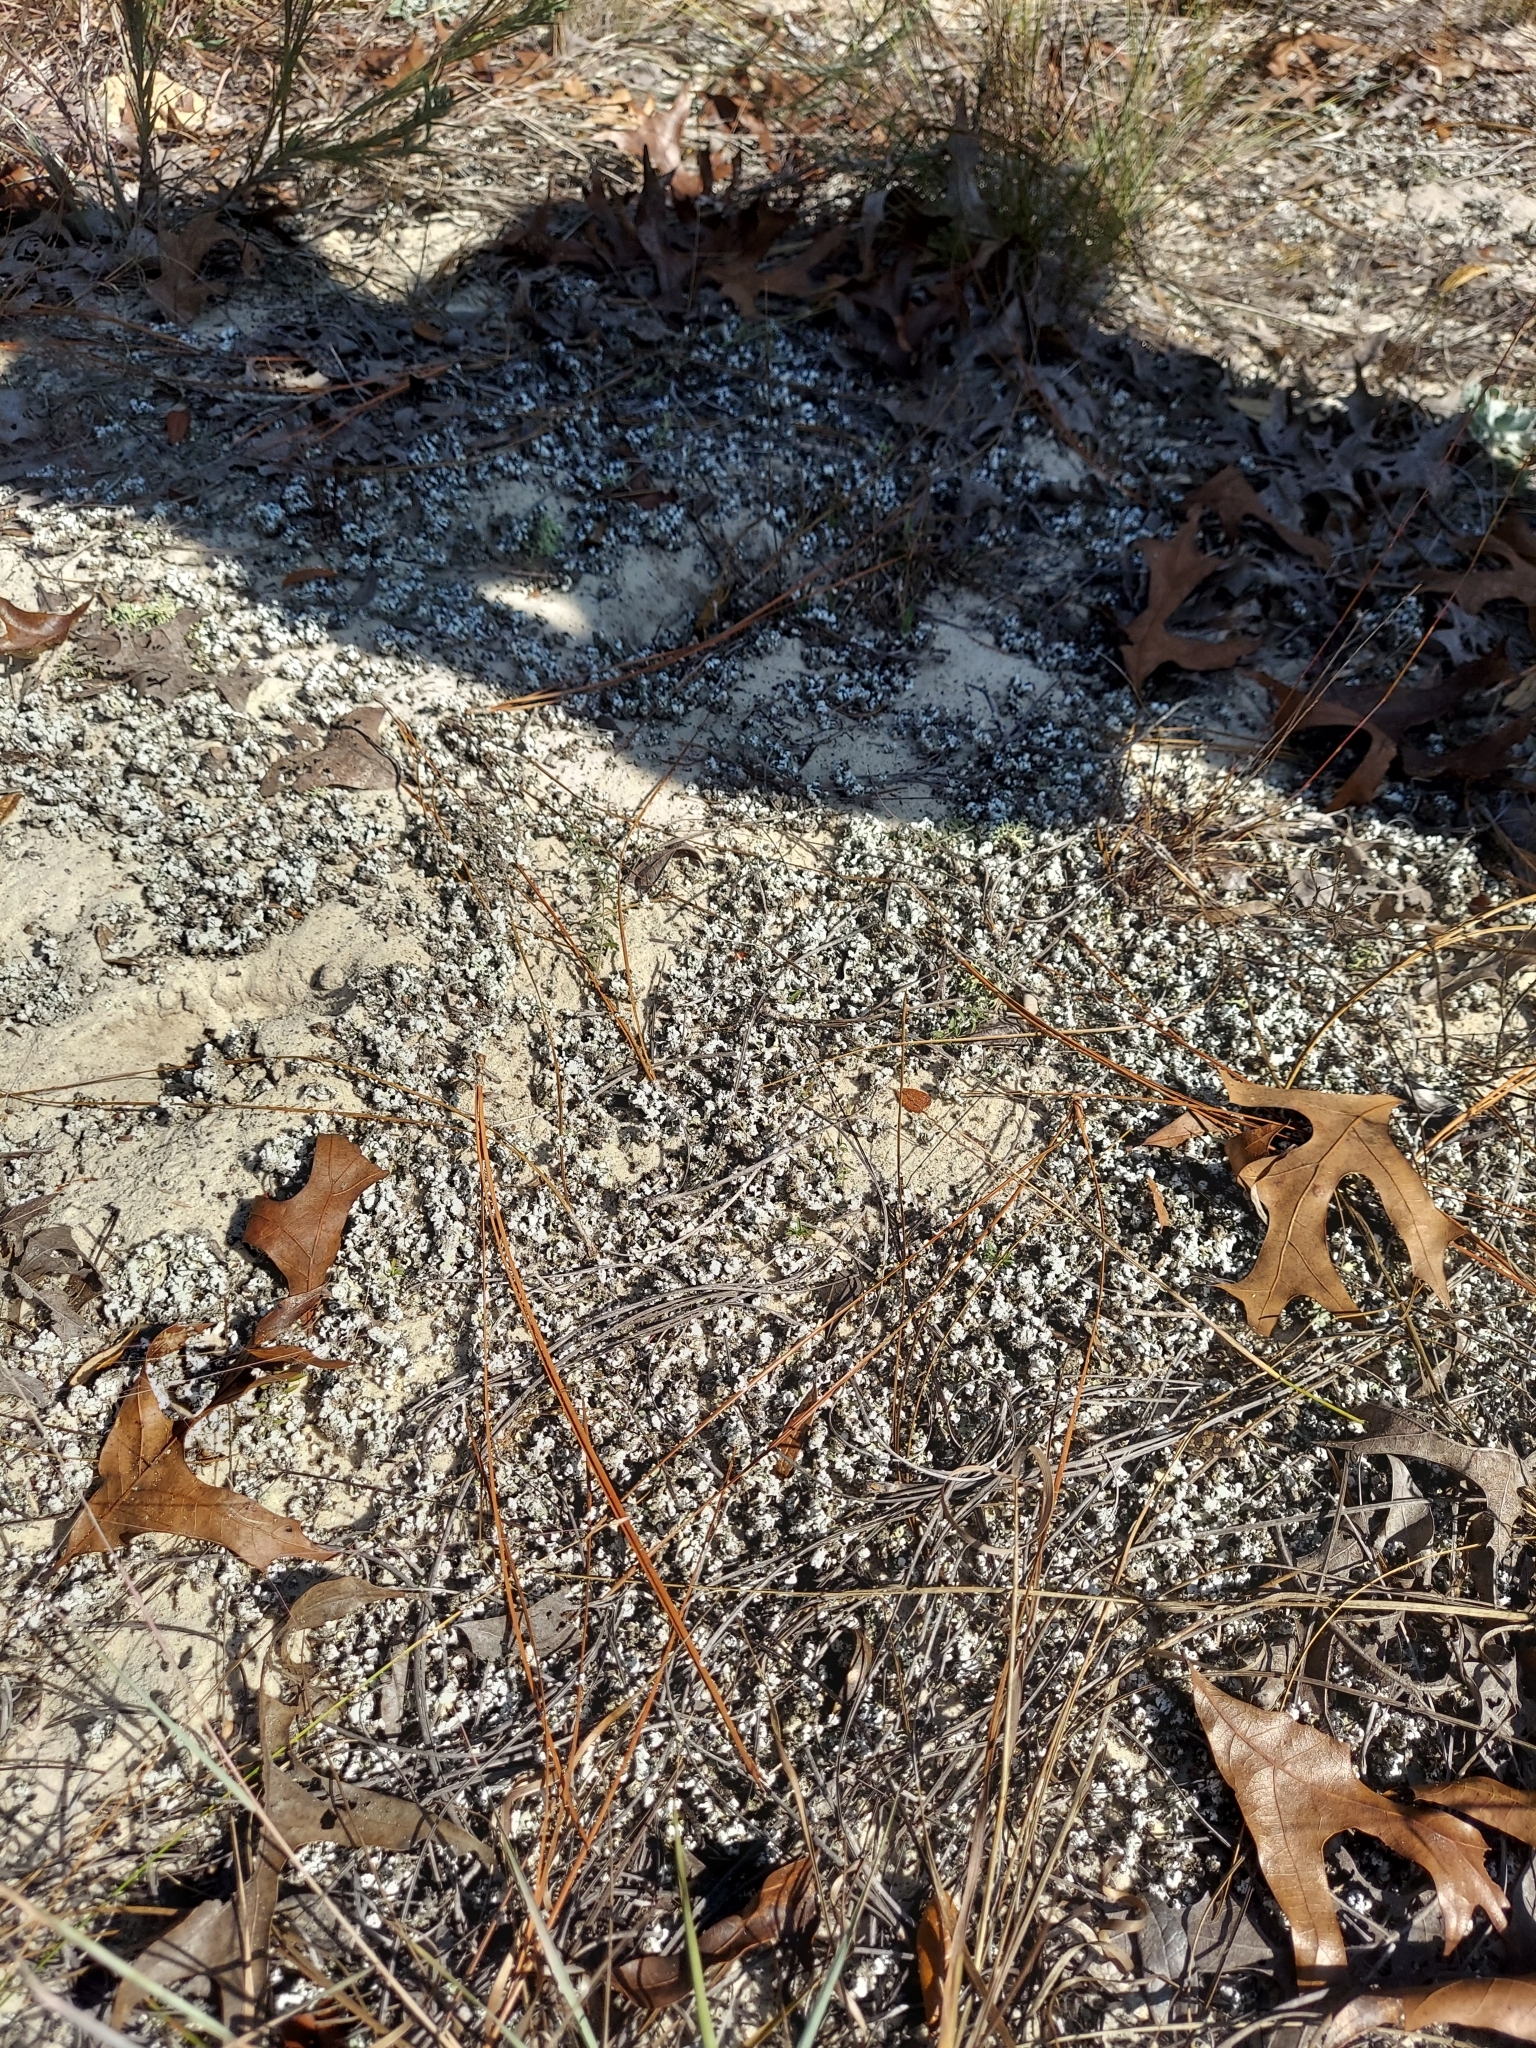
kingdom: Fungi
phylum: Ascomycota
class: Lecanoromycetes
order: Lecanorales
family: Cladoniaceae
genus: Cladonia
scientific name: Cladonia prostrata
